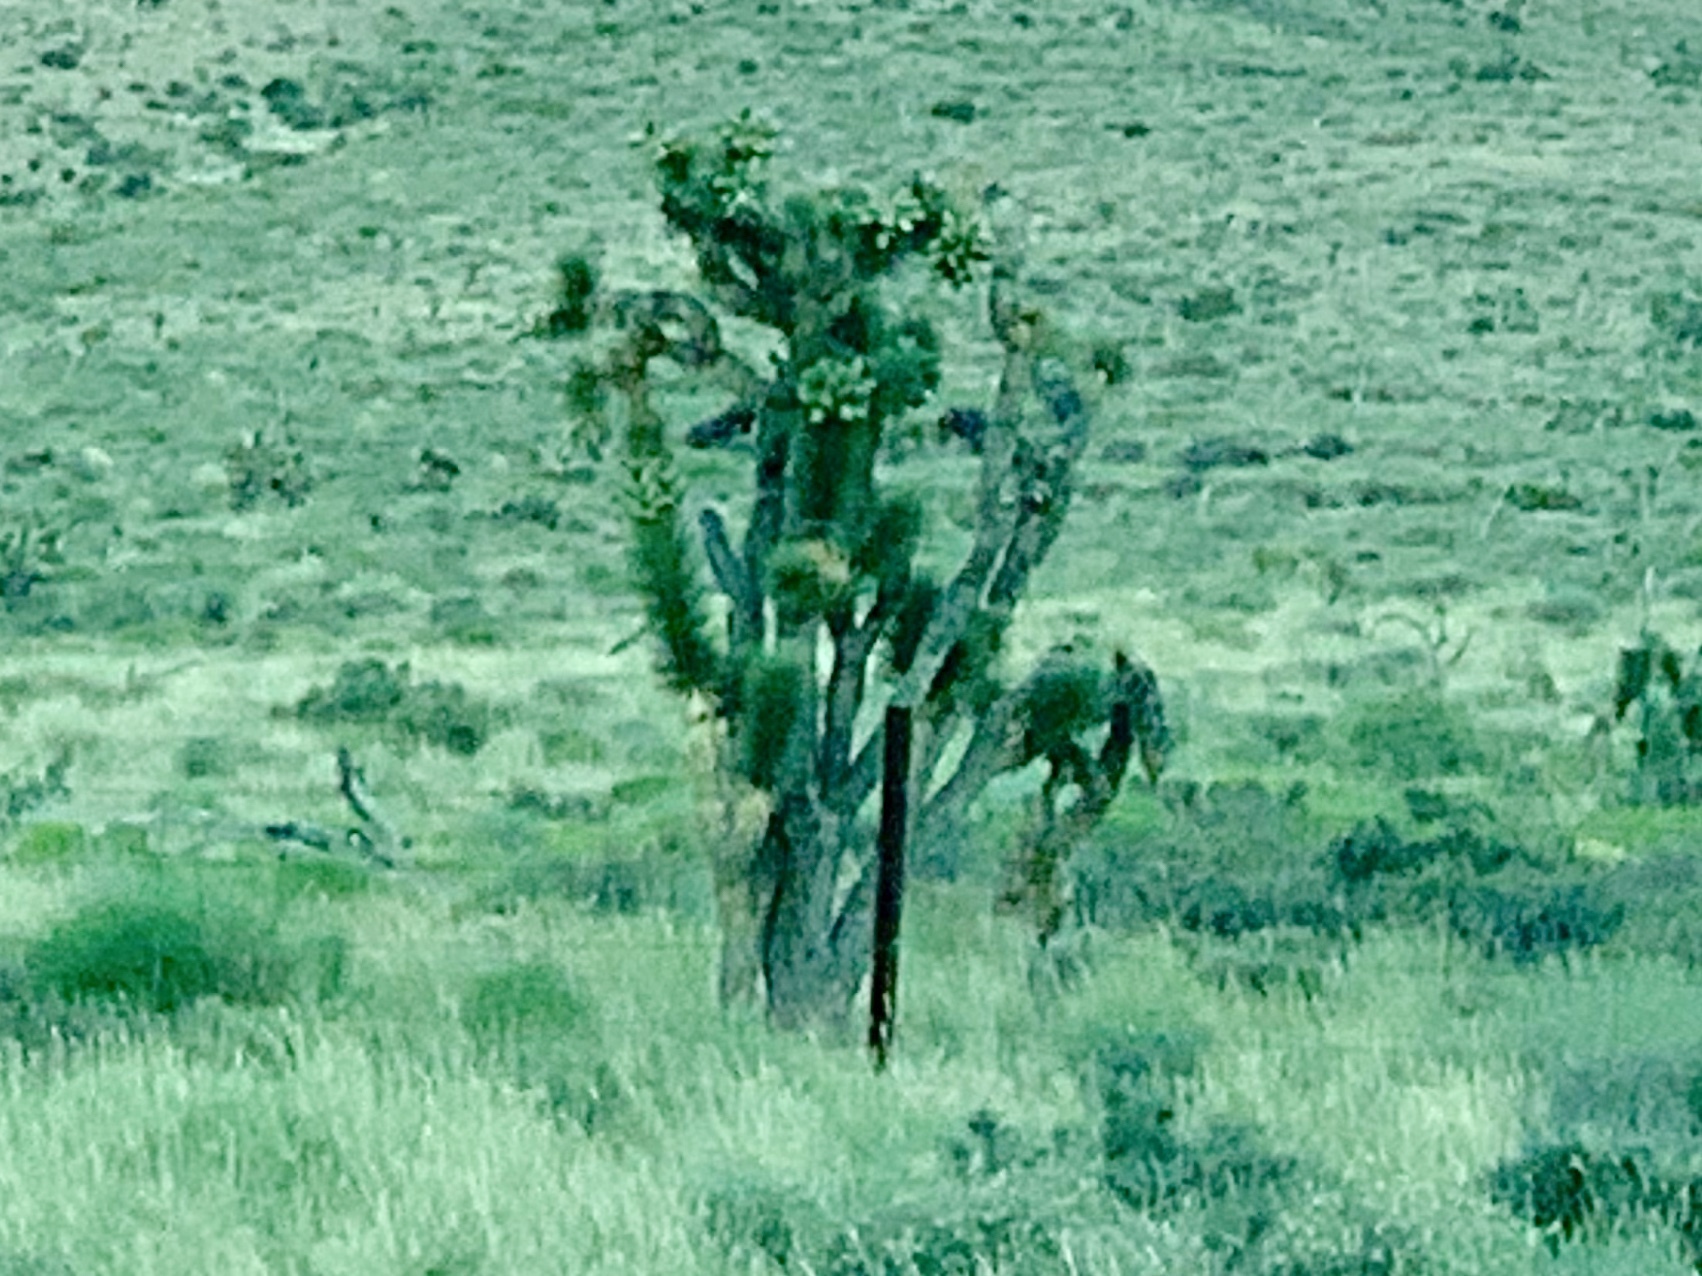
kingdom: Plantae
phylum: Tracheophyta
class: Liliopsida
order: Asparagales
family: Asparagaceae
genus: Yucca
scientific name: Yucca brevifolia
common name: Joshua tree
